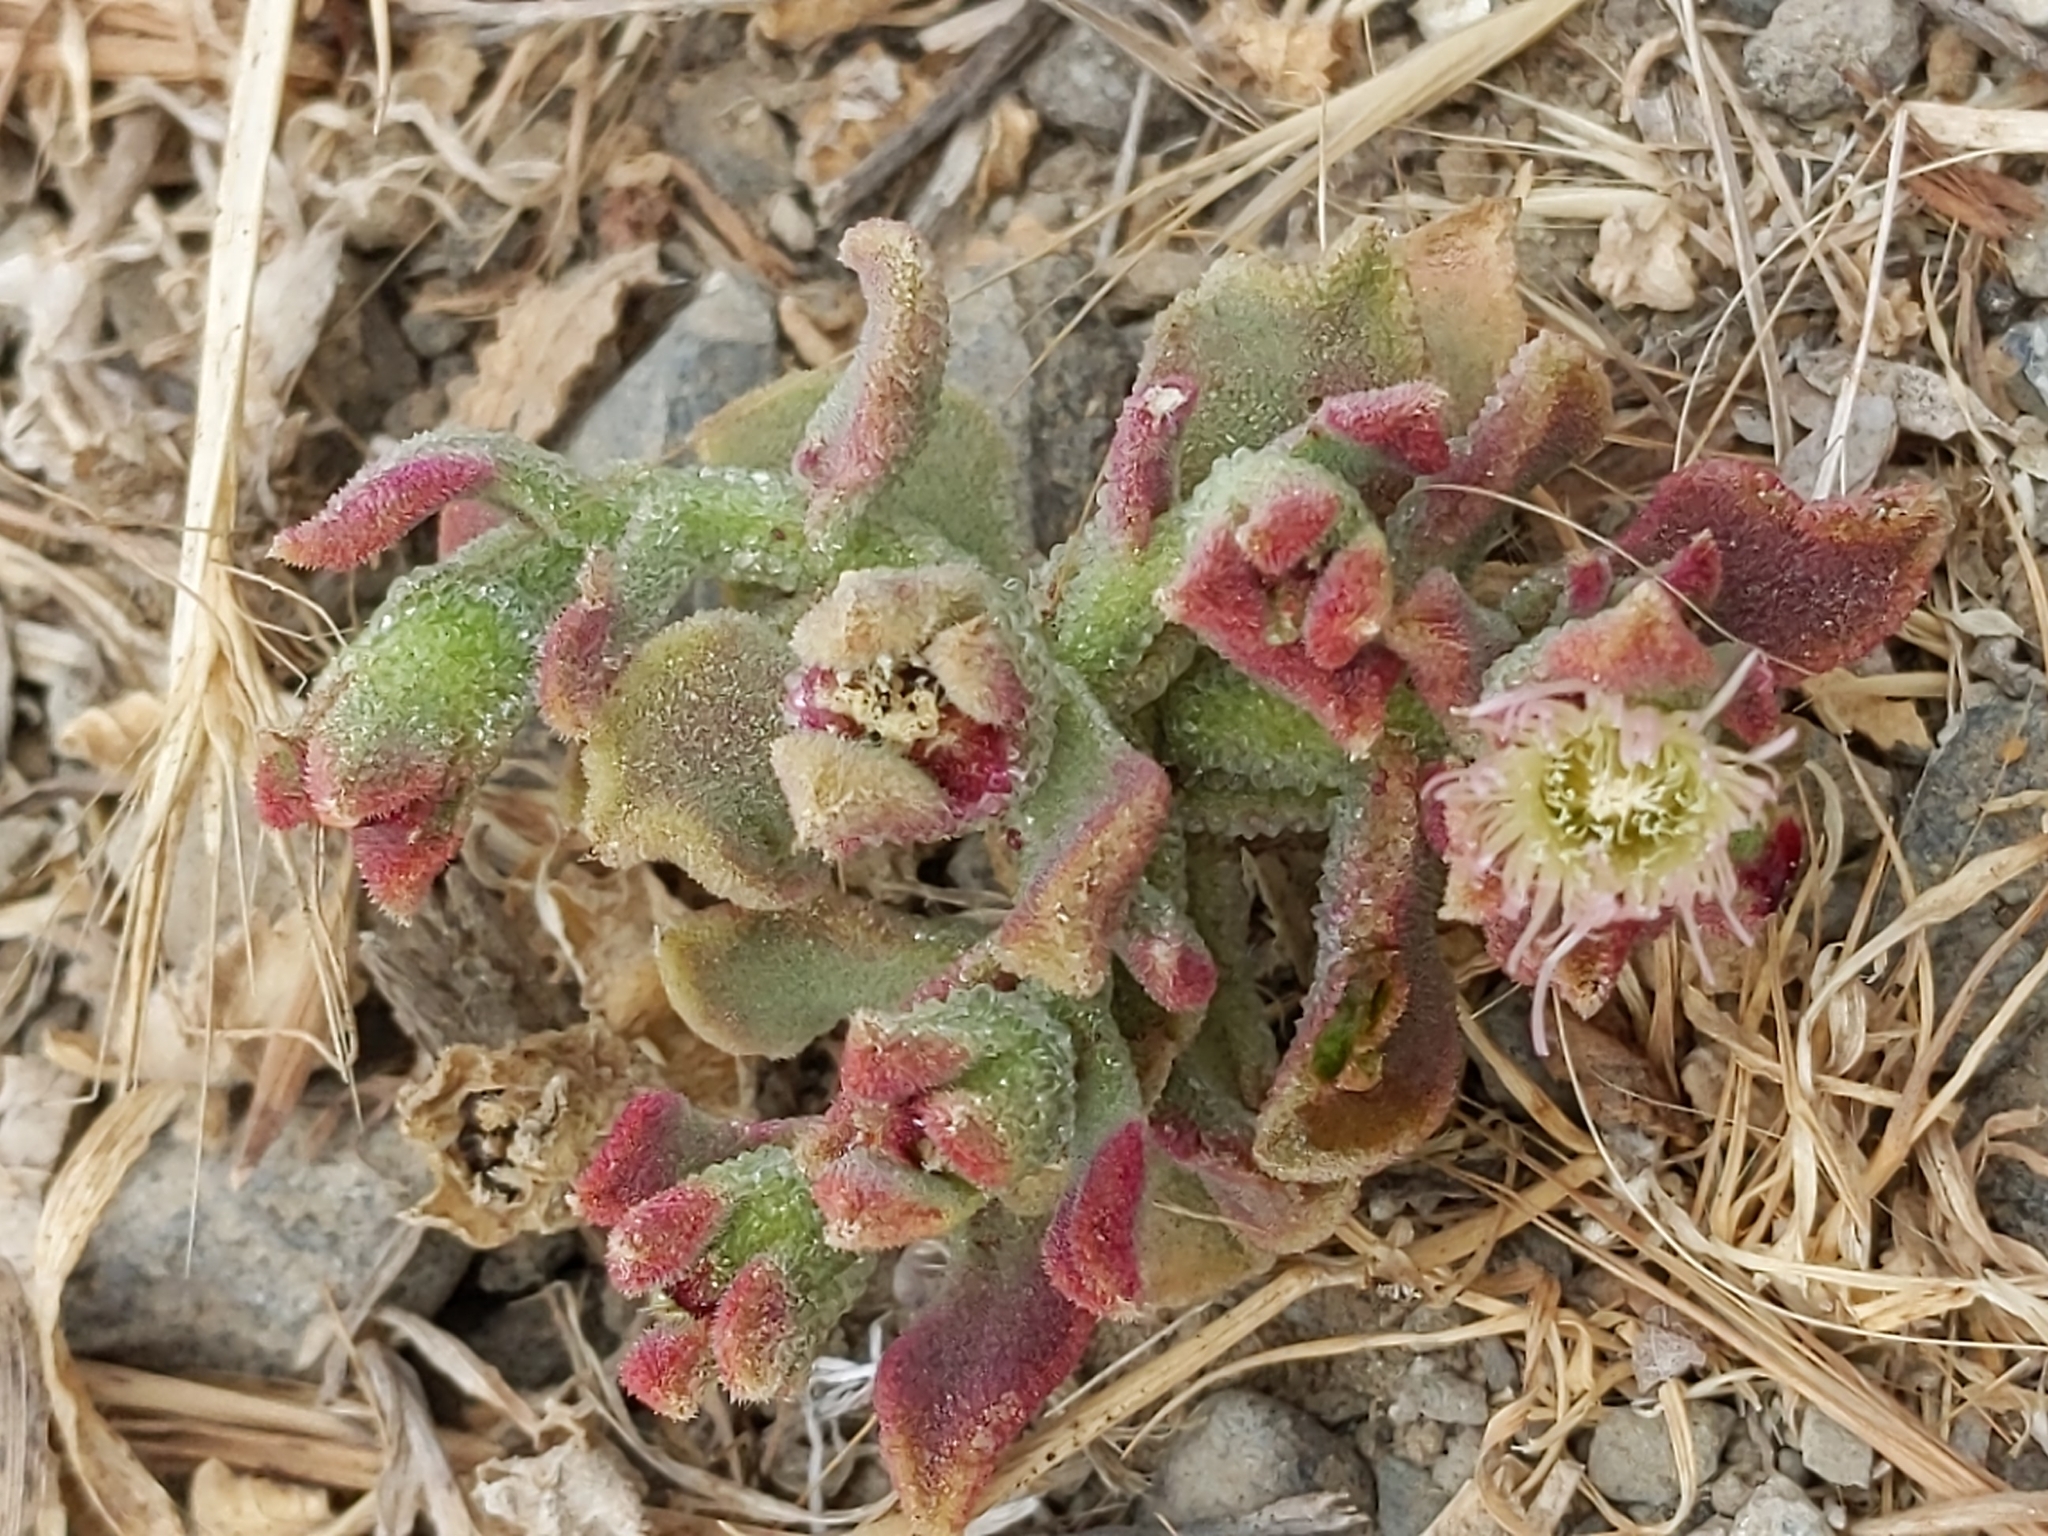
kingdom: Plantae
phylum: Tracheophyta
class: Magnoliopsida
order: Caryophyllales
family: Aizoaceae
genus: Mesembryanthemum
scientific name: Mesembryanthemum crystallinum
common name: Common iceplant
